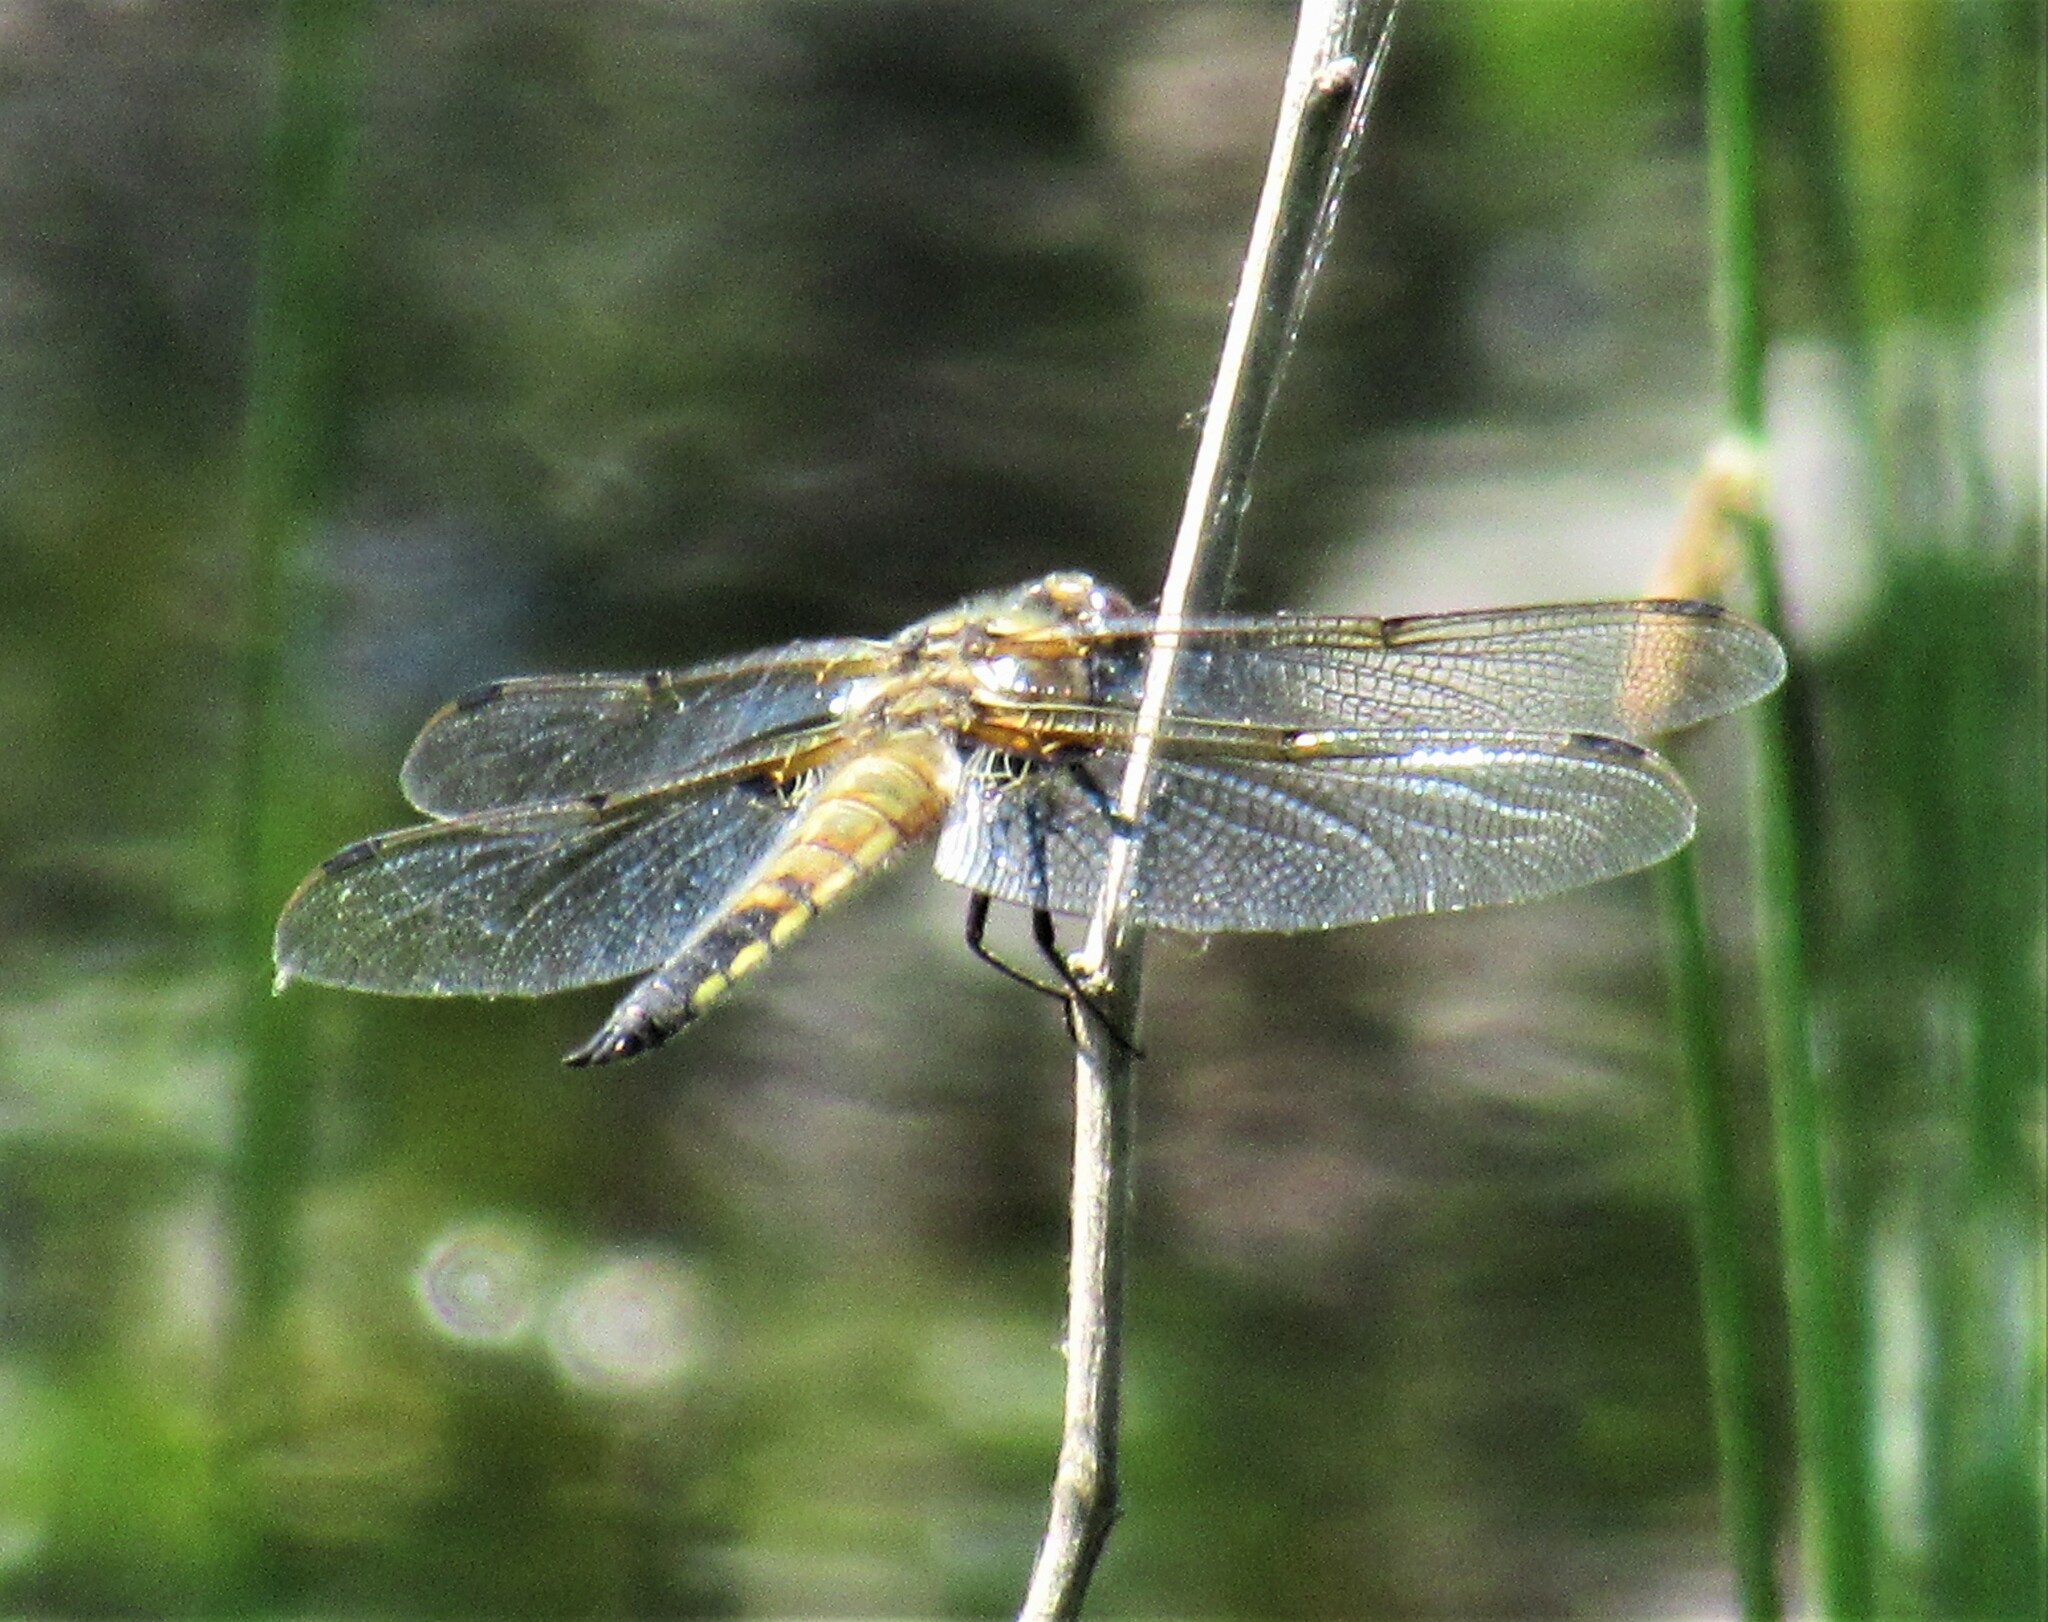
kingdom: Animalia
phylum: Arthropoda
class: Insecta
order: Odonata
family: Libellulidae
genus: Libellula
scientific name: Libellula quadrimaculata
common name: Four-spotted chaser
